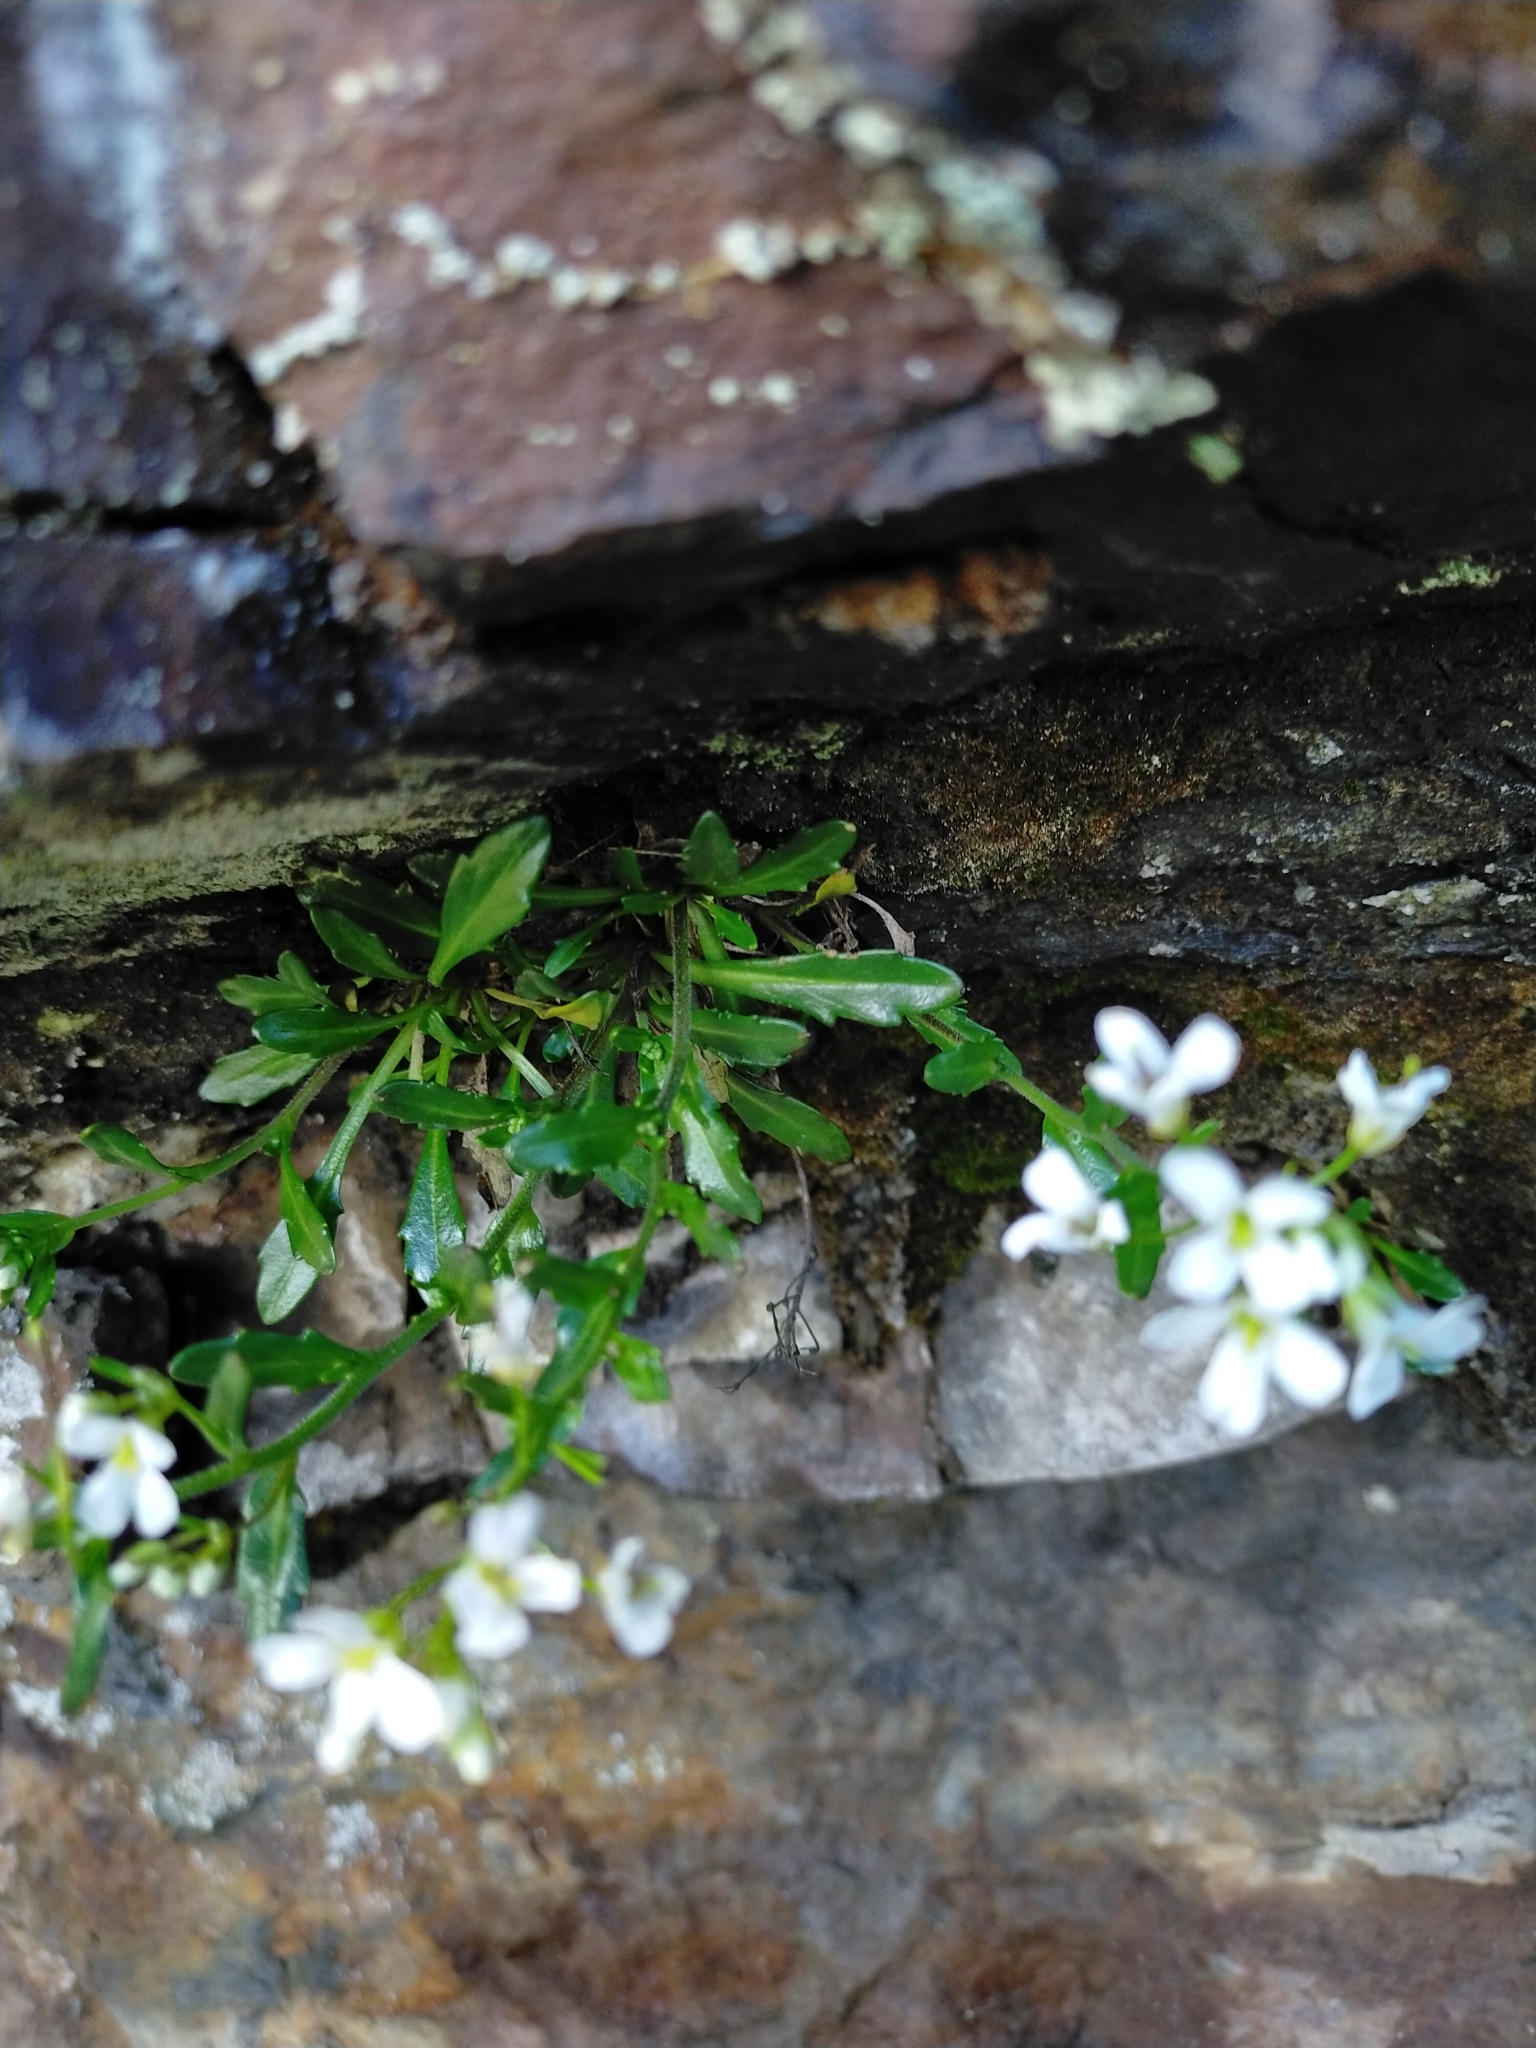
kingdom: Plantae
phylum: Tracheophyta
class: Magnoliopsida
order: Brassicales
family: Brassicaceae
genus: Arabidopsis
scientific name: Arabidopsis lyrata
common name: Lyrate rockcress
